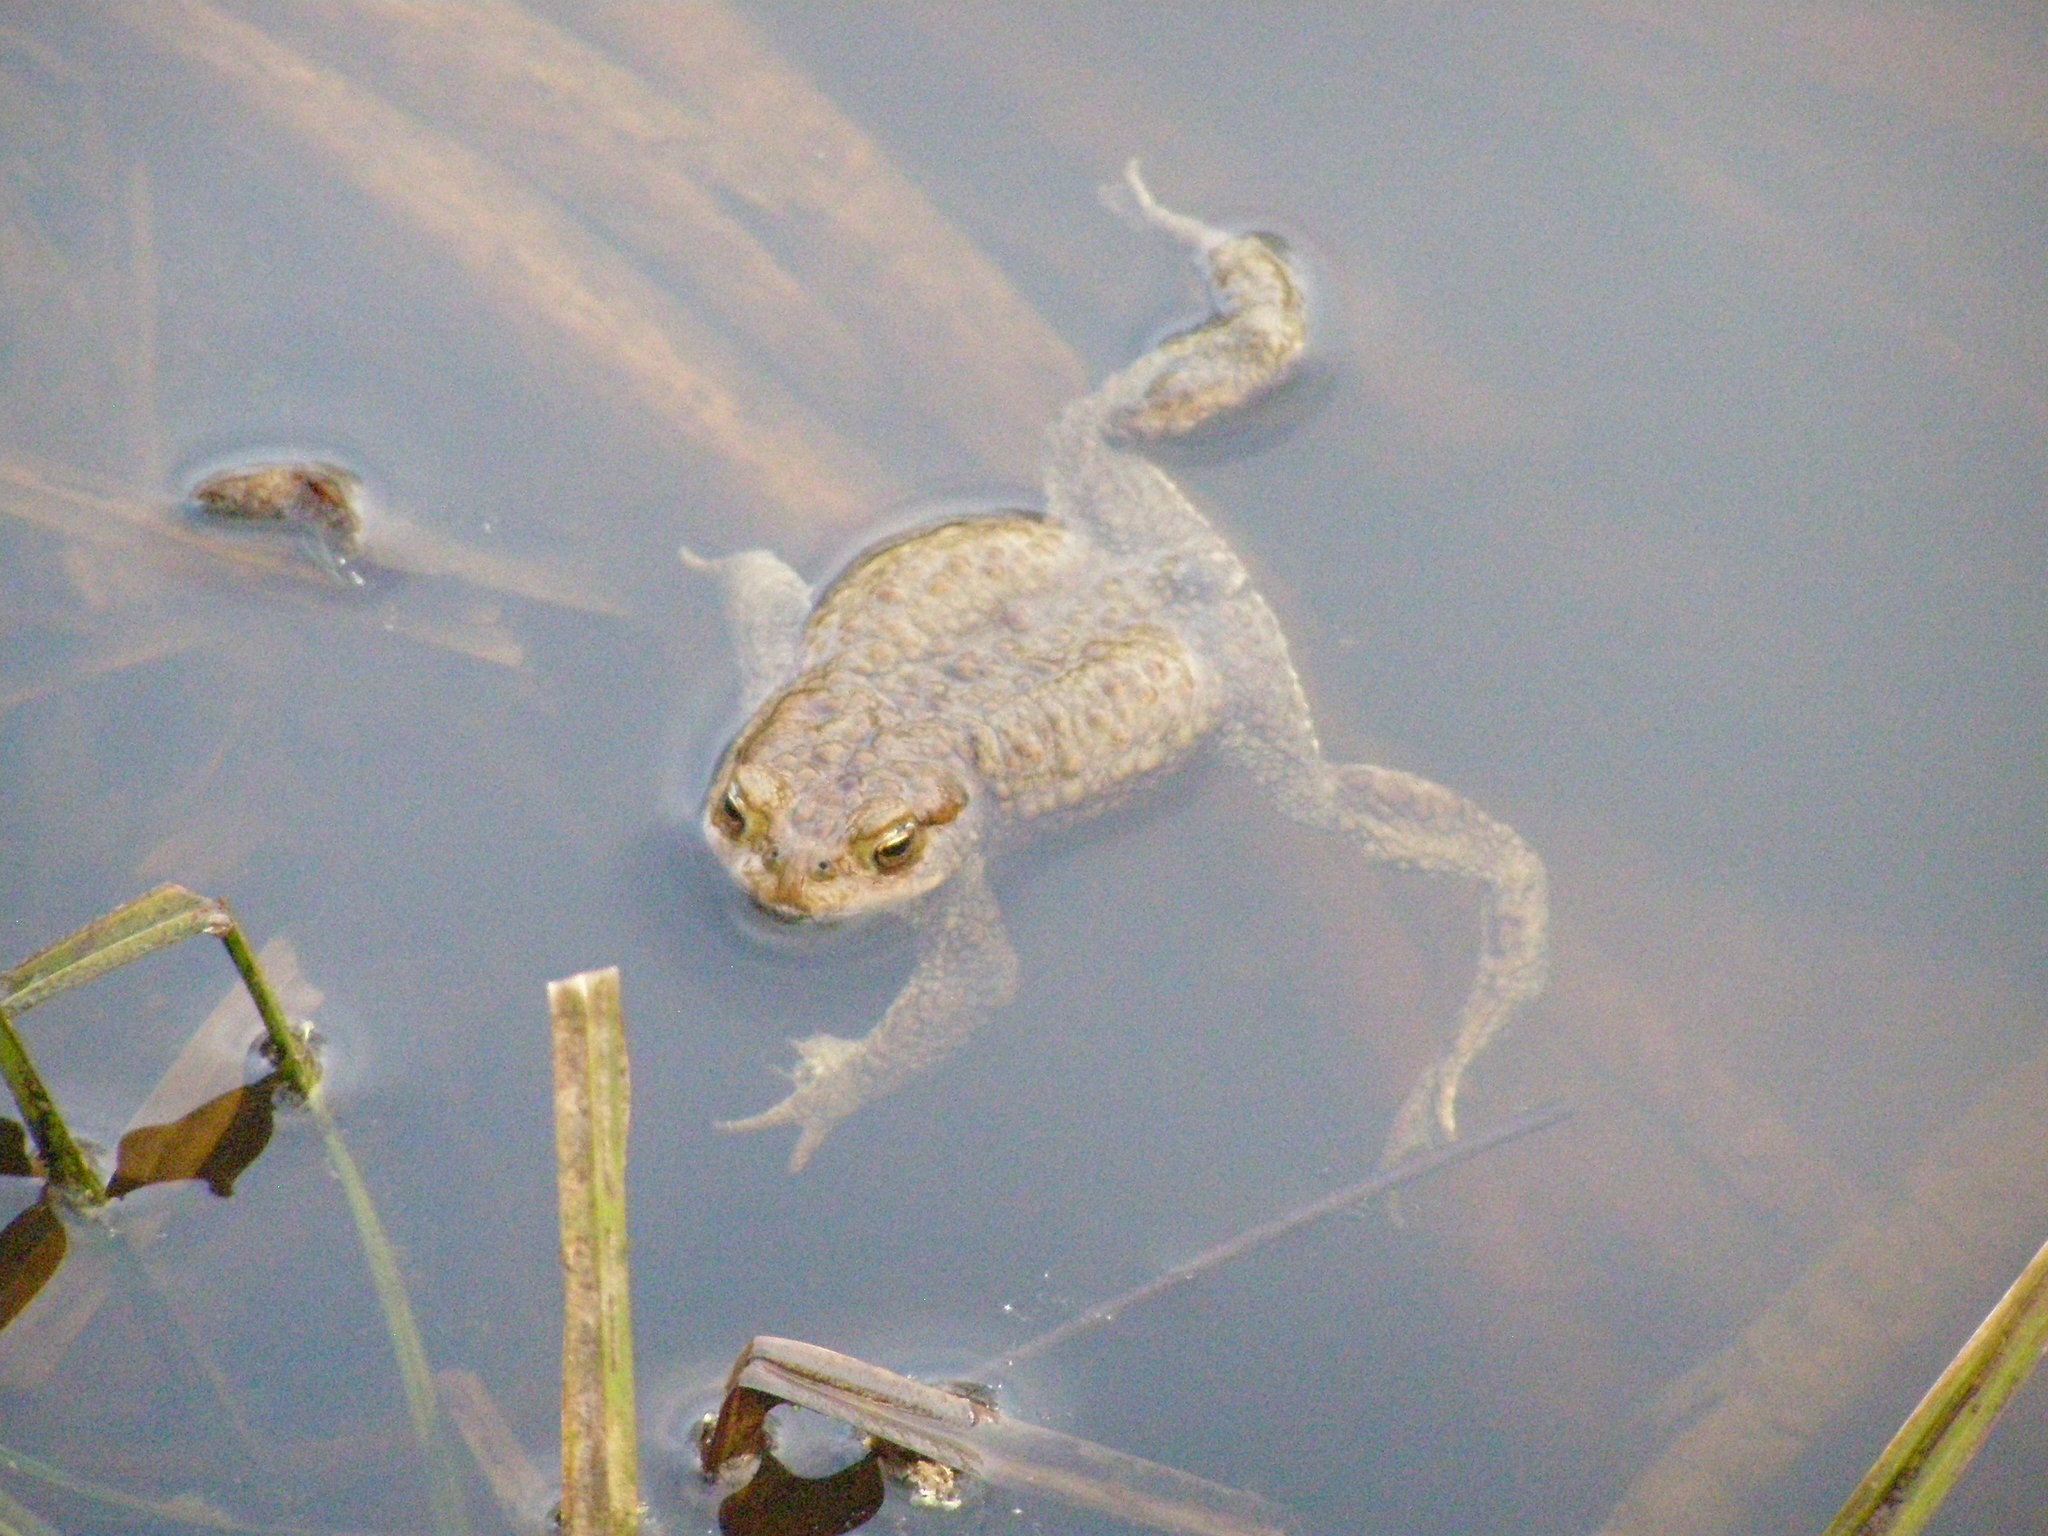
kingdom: Animalia
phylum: Chordata
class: Amphibia
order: Anura
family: Bufonidae
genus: Bufo
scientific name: Bufo bufo
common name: Common toad
